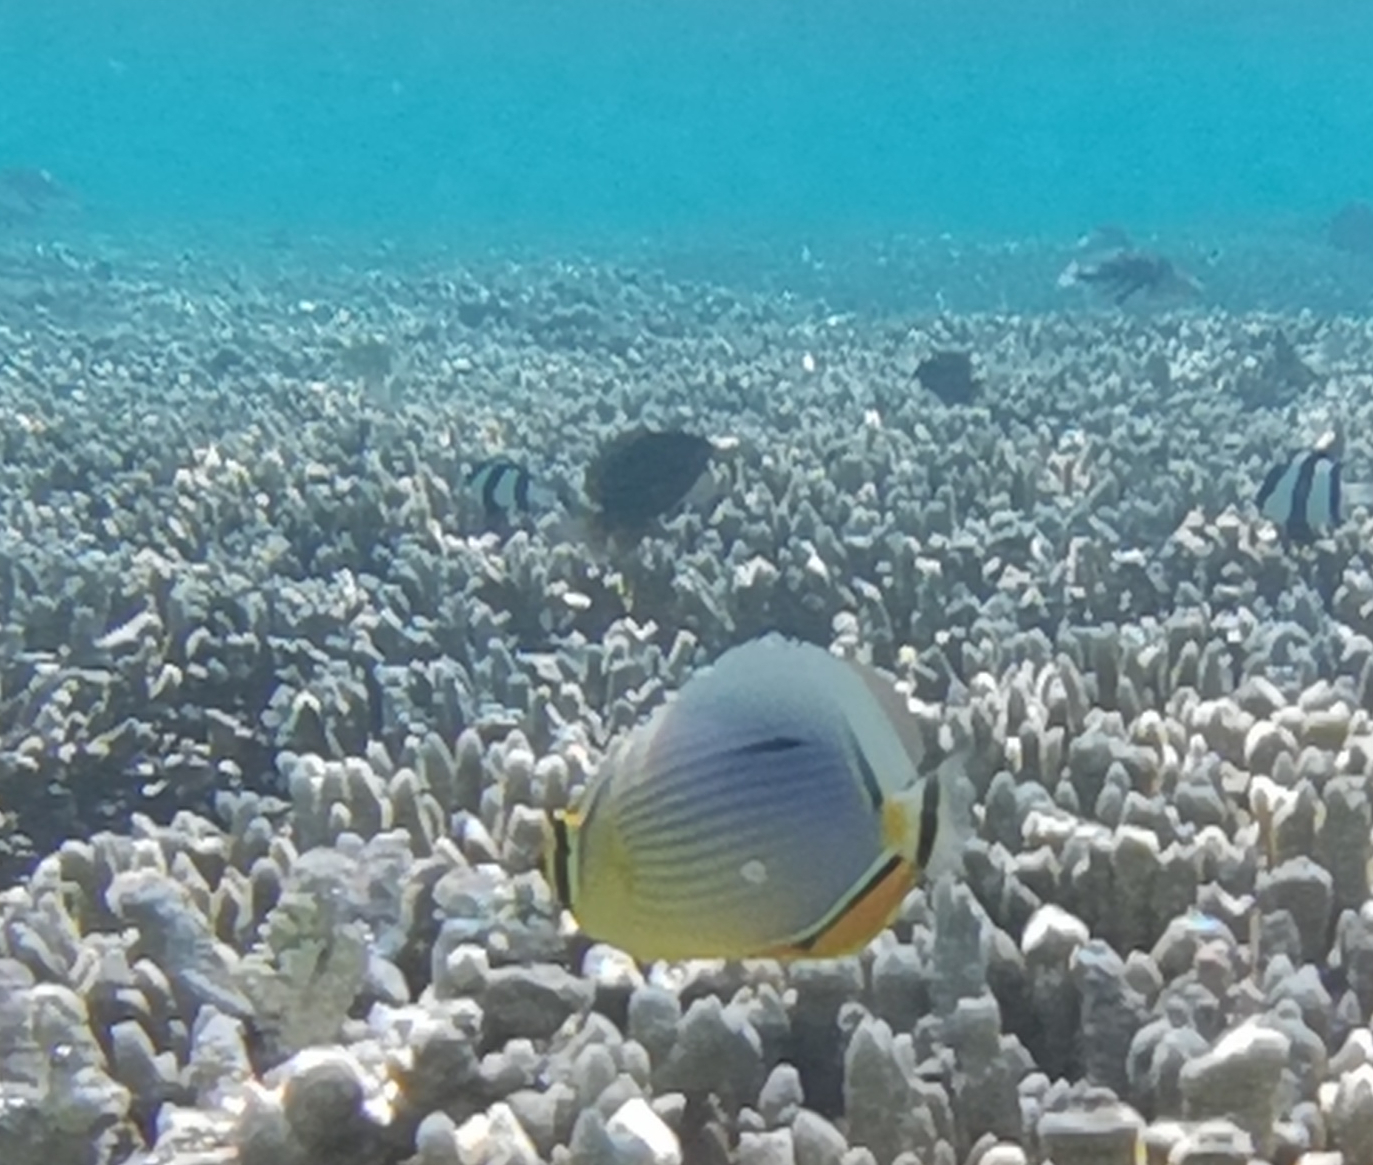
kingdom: Animalia
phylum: Chordata
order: Perciformes
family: Chaetodontidae
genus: Chaetodon
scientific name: Chaetodon trifasciatus
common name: Redfin butterflyfish
